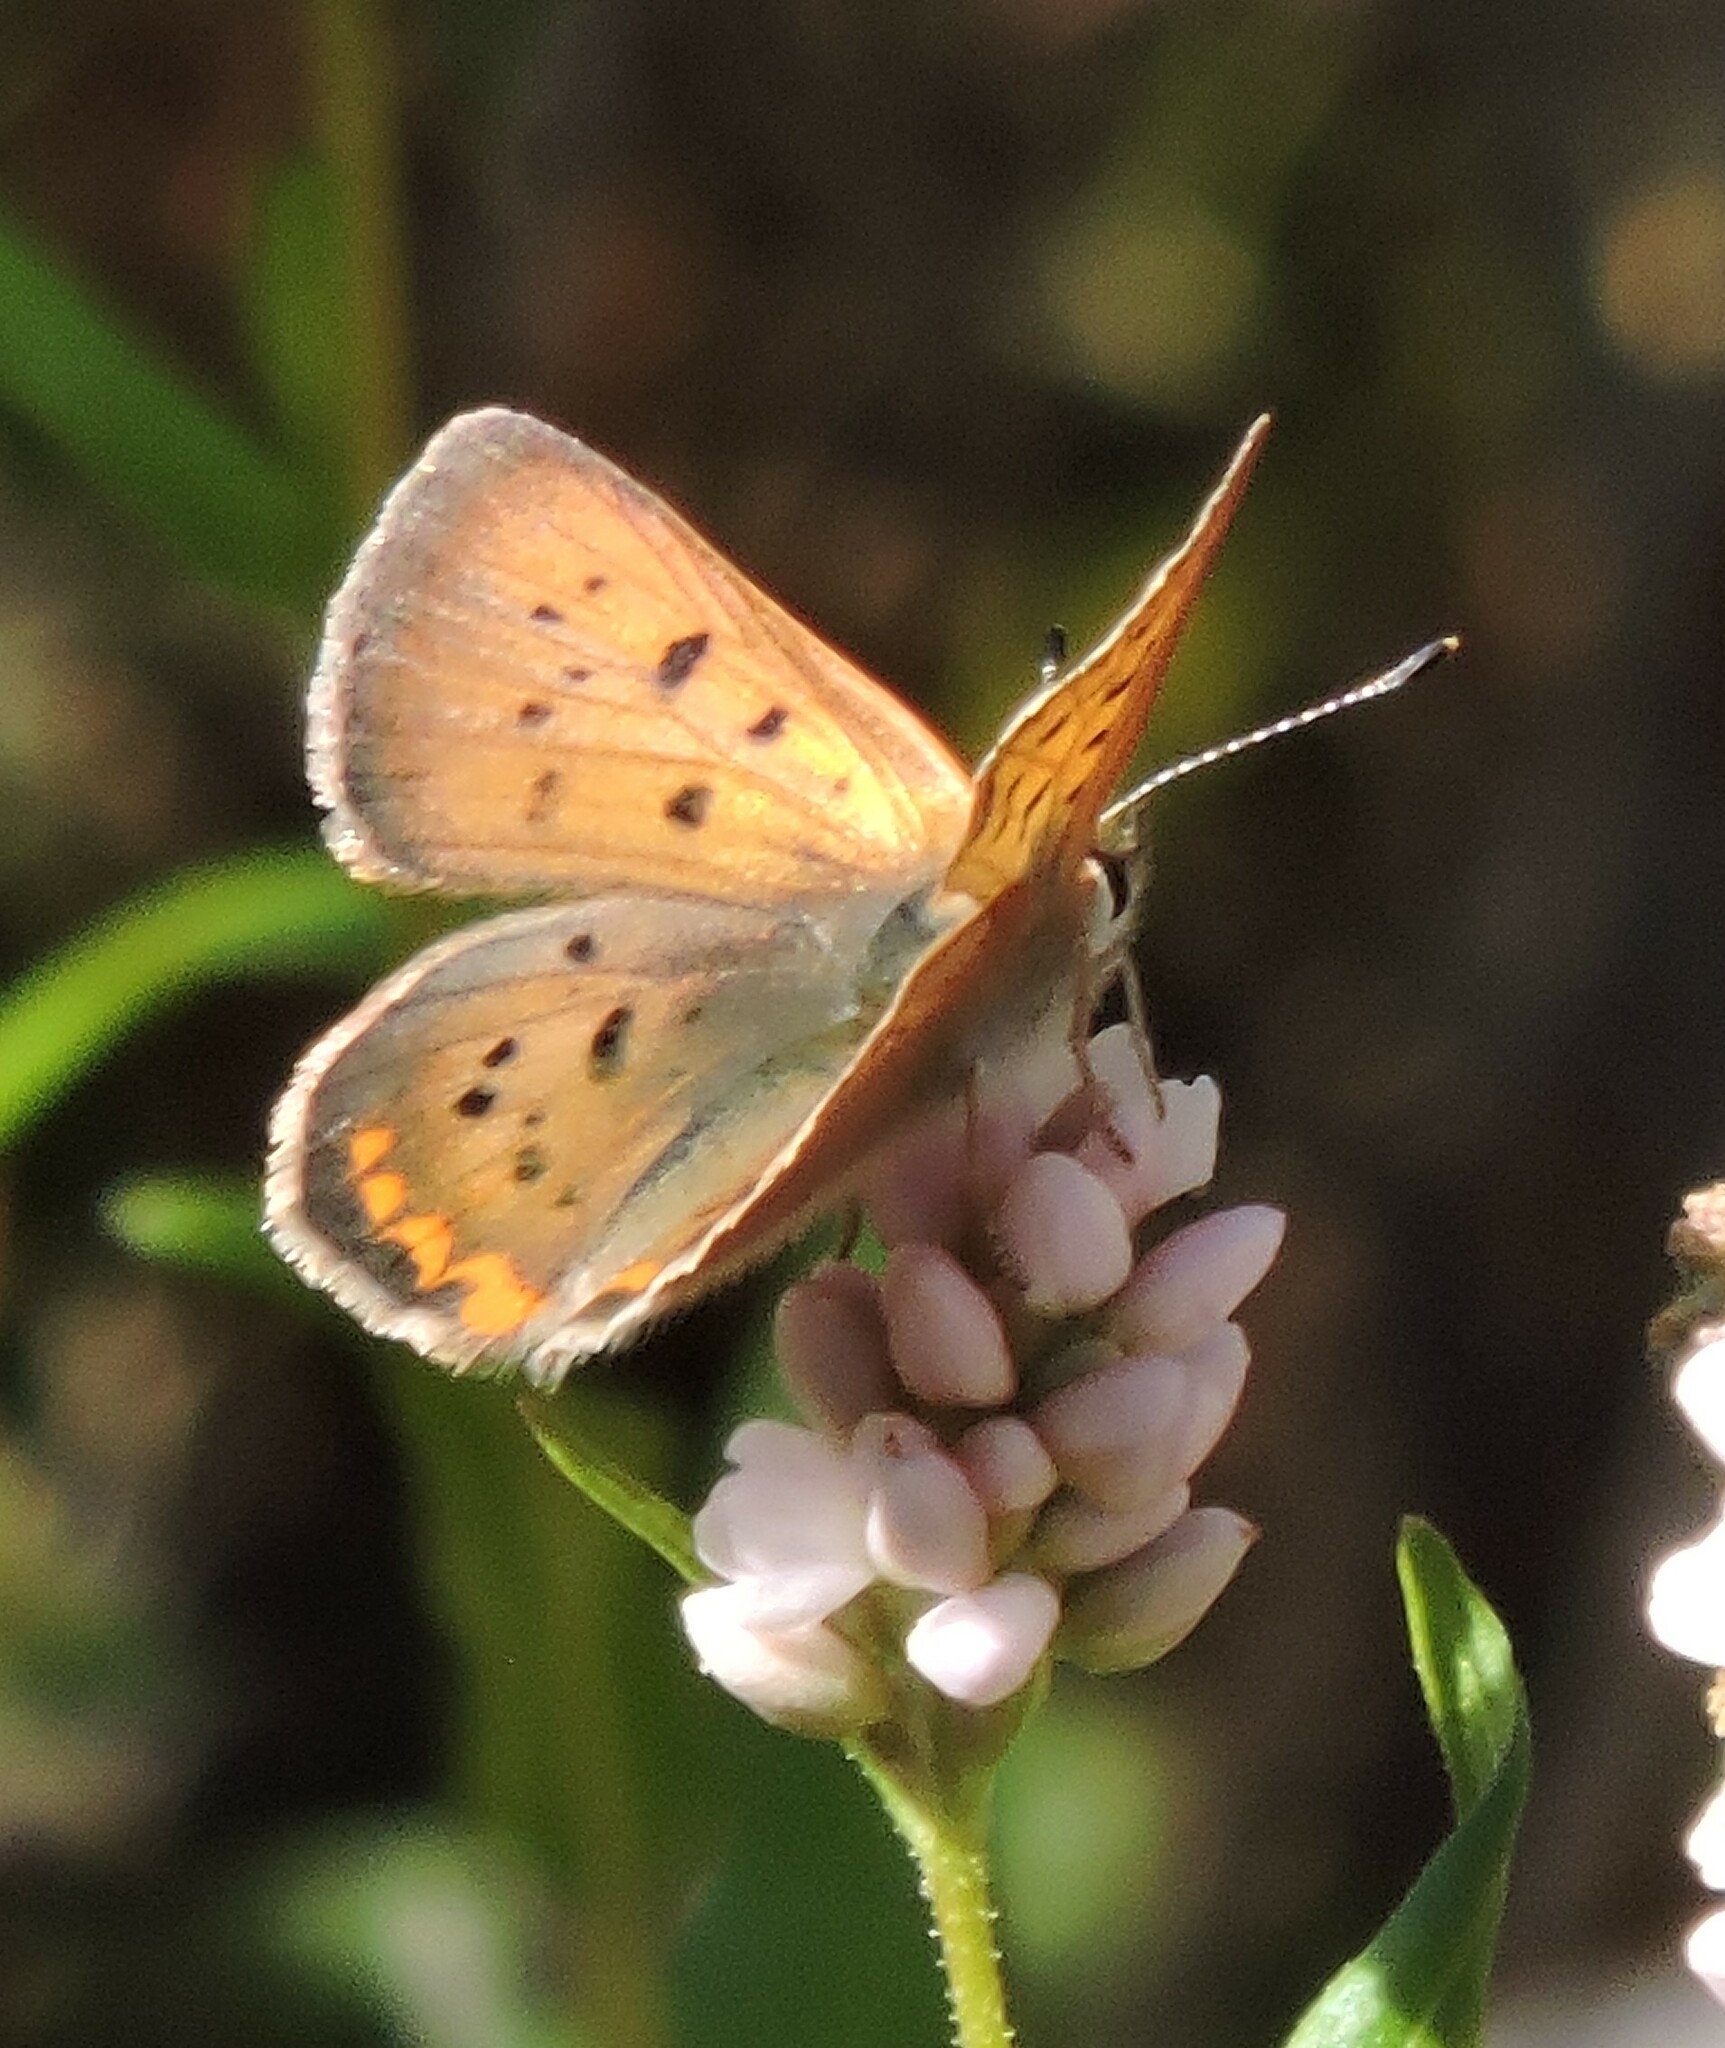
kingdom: Animalia
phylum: Arthropoda
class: Insecta
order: Lepidoptera
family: Lycaenidae
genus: Tharsalea
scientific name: Tharsalea helloides
